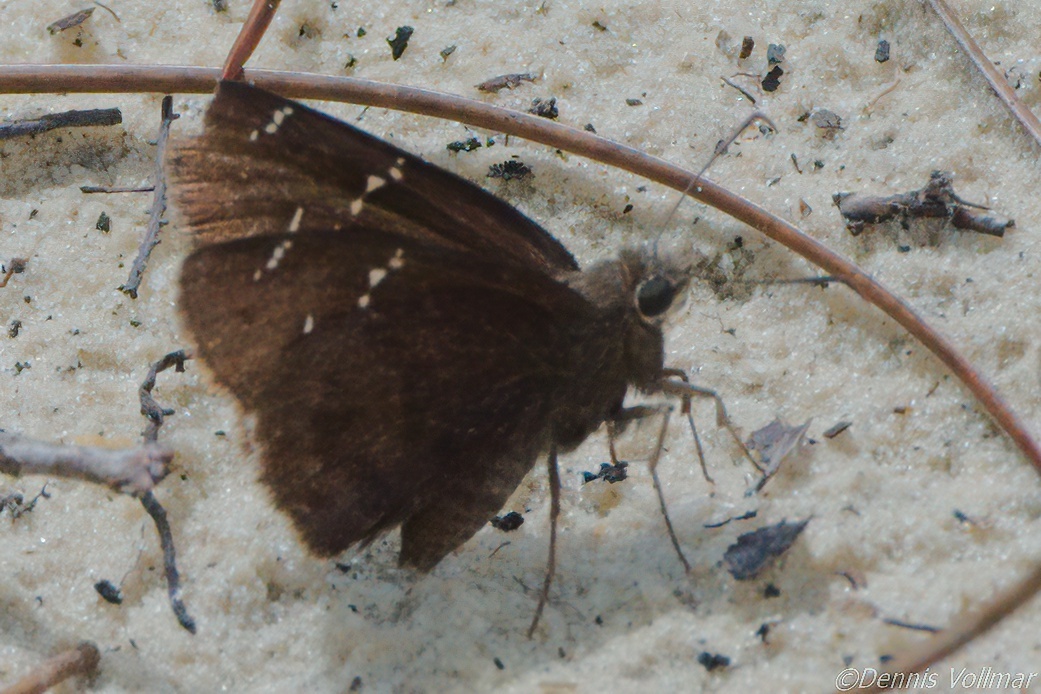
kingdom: Animalia
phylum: Arthropoda
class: Insecta
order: Lepidoptera
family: Hesperiidae
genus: Thorybes
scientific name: Thorybes mexicana
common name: Mexican cloudywing
